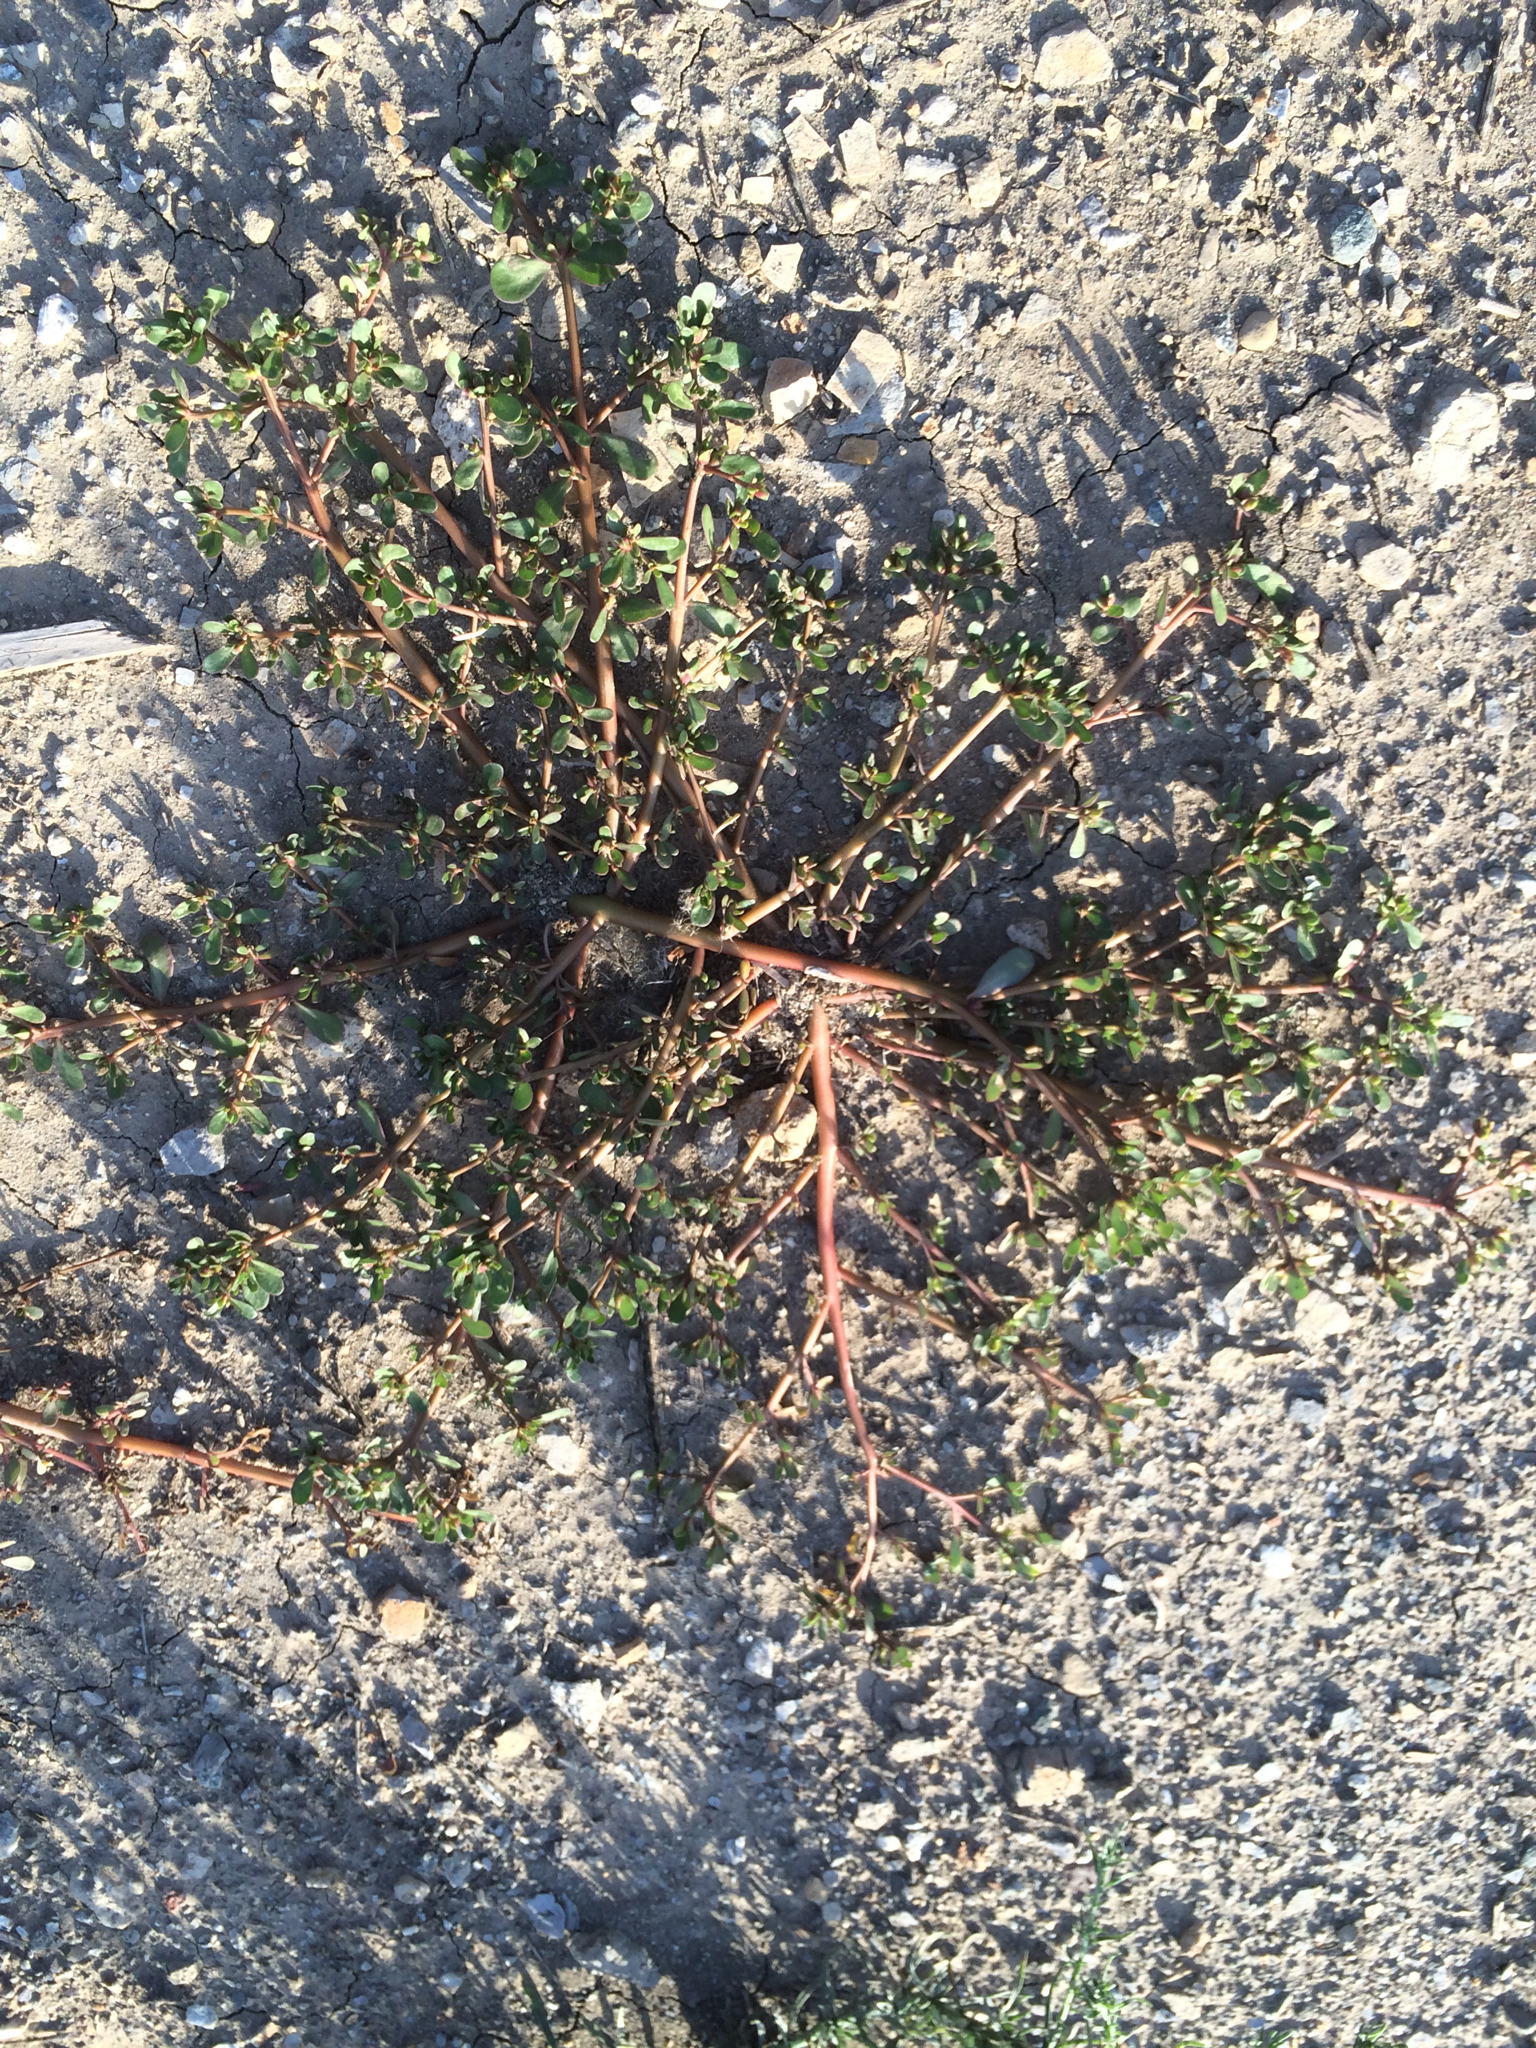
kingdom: Plantae
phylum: Tracheophyta
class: Magnoliopsida
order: Caryophyllales
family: Portulacaceae
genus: Portulaca
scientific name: Portulaca oleracea
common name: Common purslane
